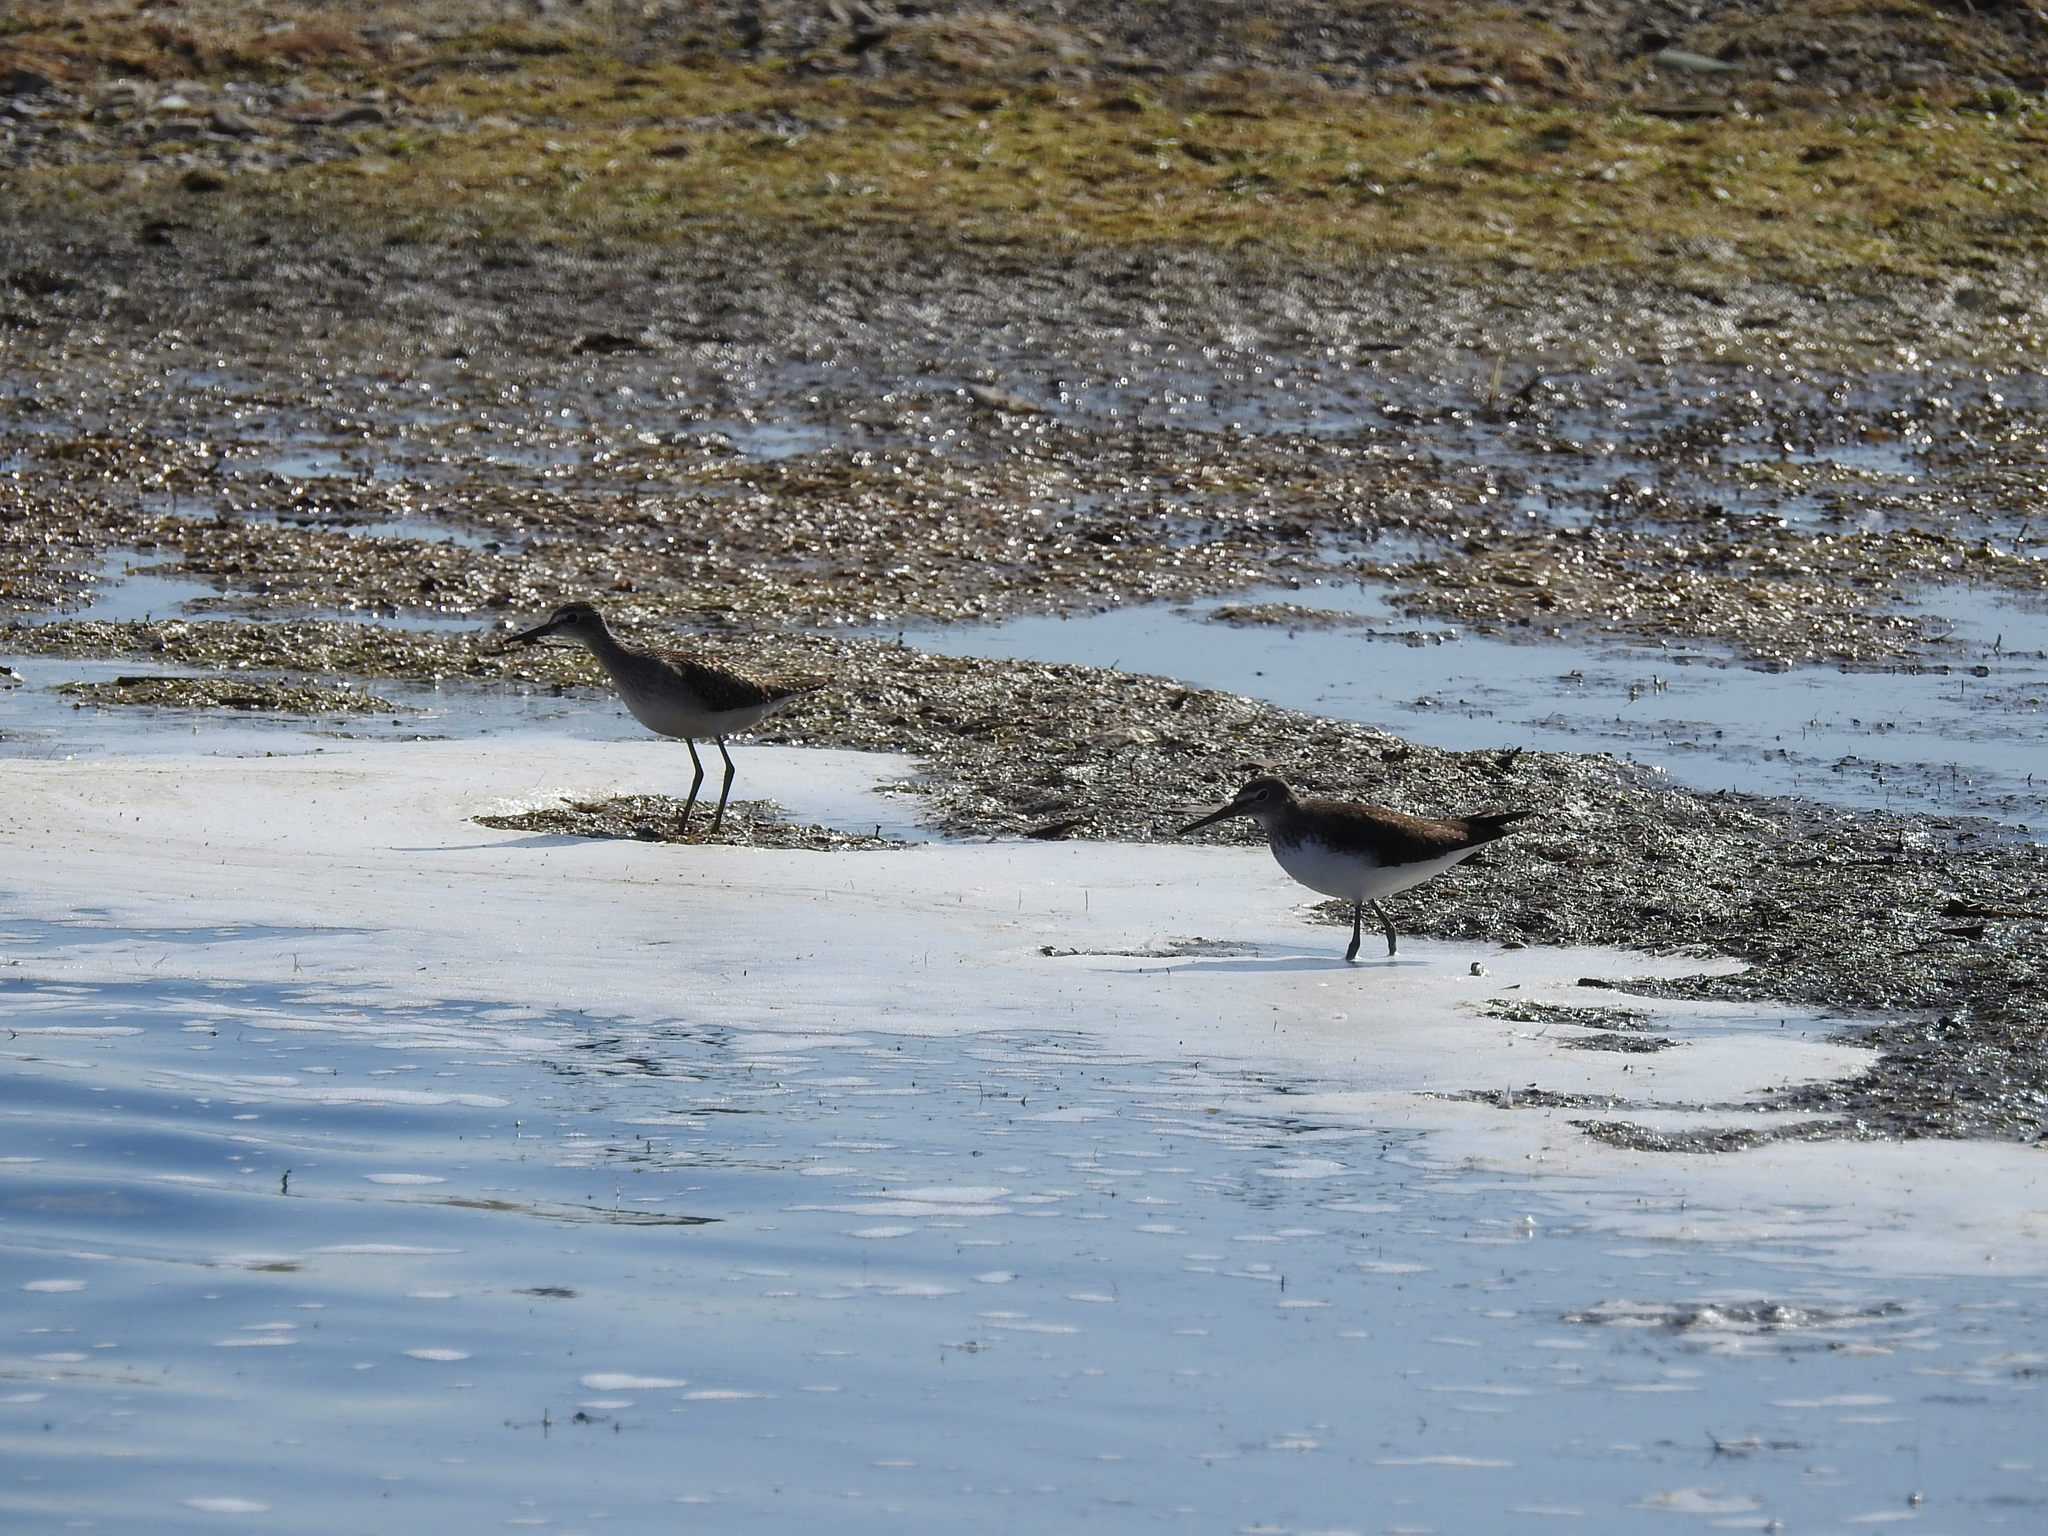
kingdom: Animalia
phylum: Chordata
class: Aves
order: Charadriiformes
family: Scolopacidae
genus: Tringa
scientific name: Tringa glareola
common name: Wood sandpiper
